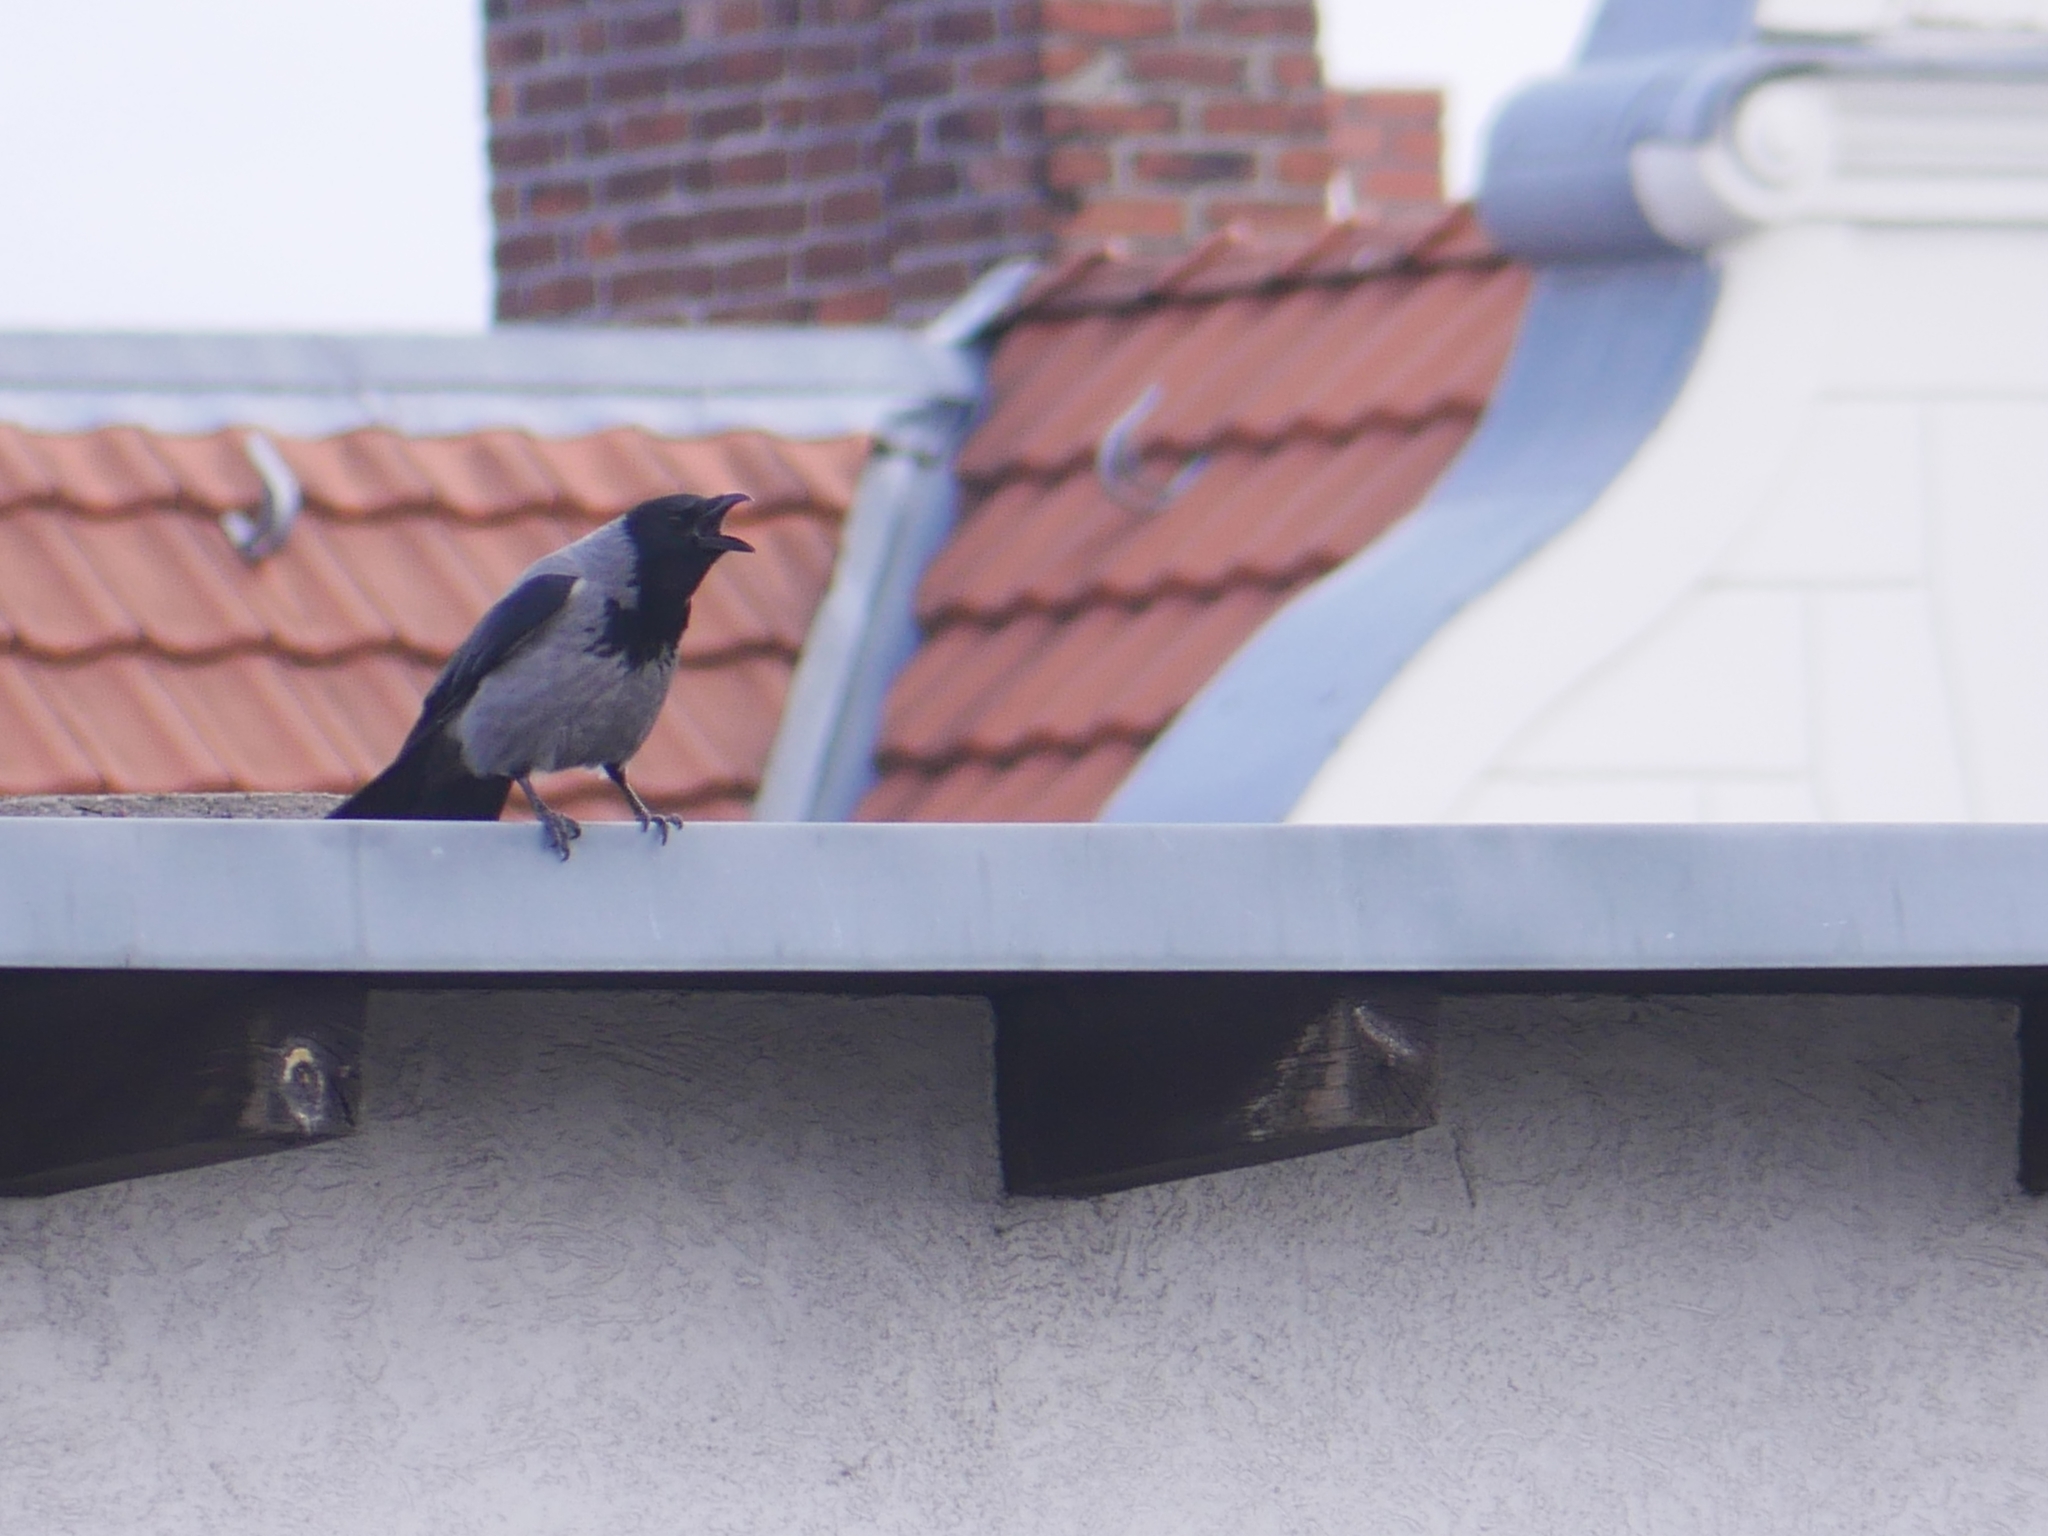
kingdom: Animalia
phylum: Chordata
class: Aves
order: Passeriformes
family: Corvidae
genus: Corvus
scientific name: Corvus cornix
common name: Hooded crow
